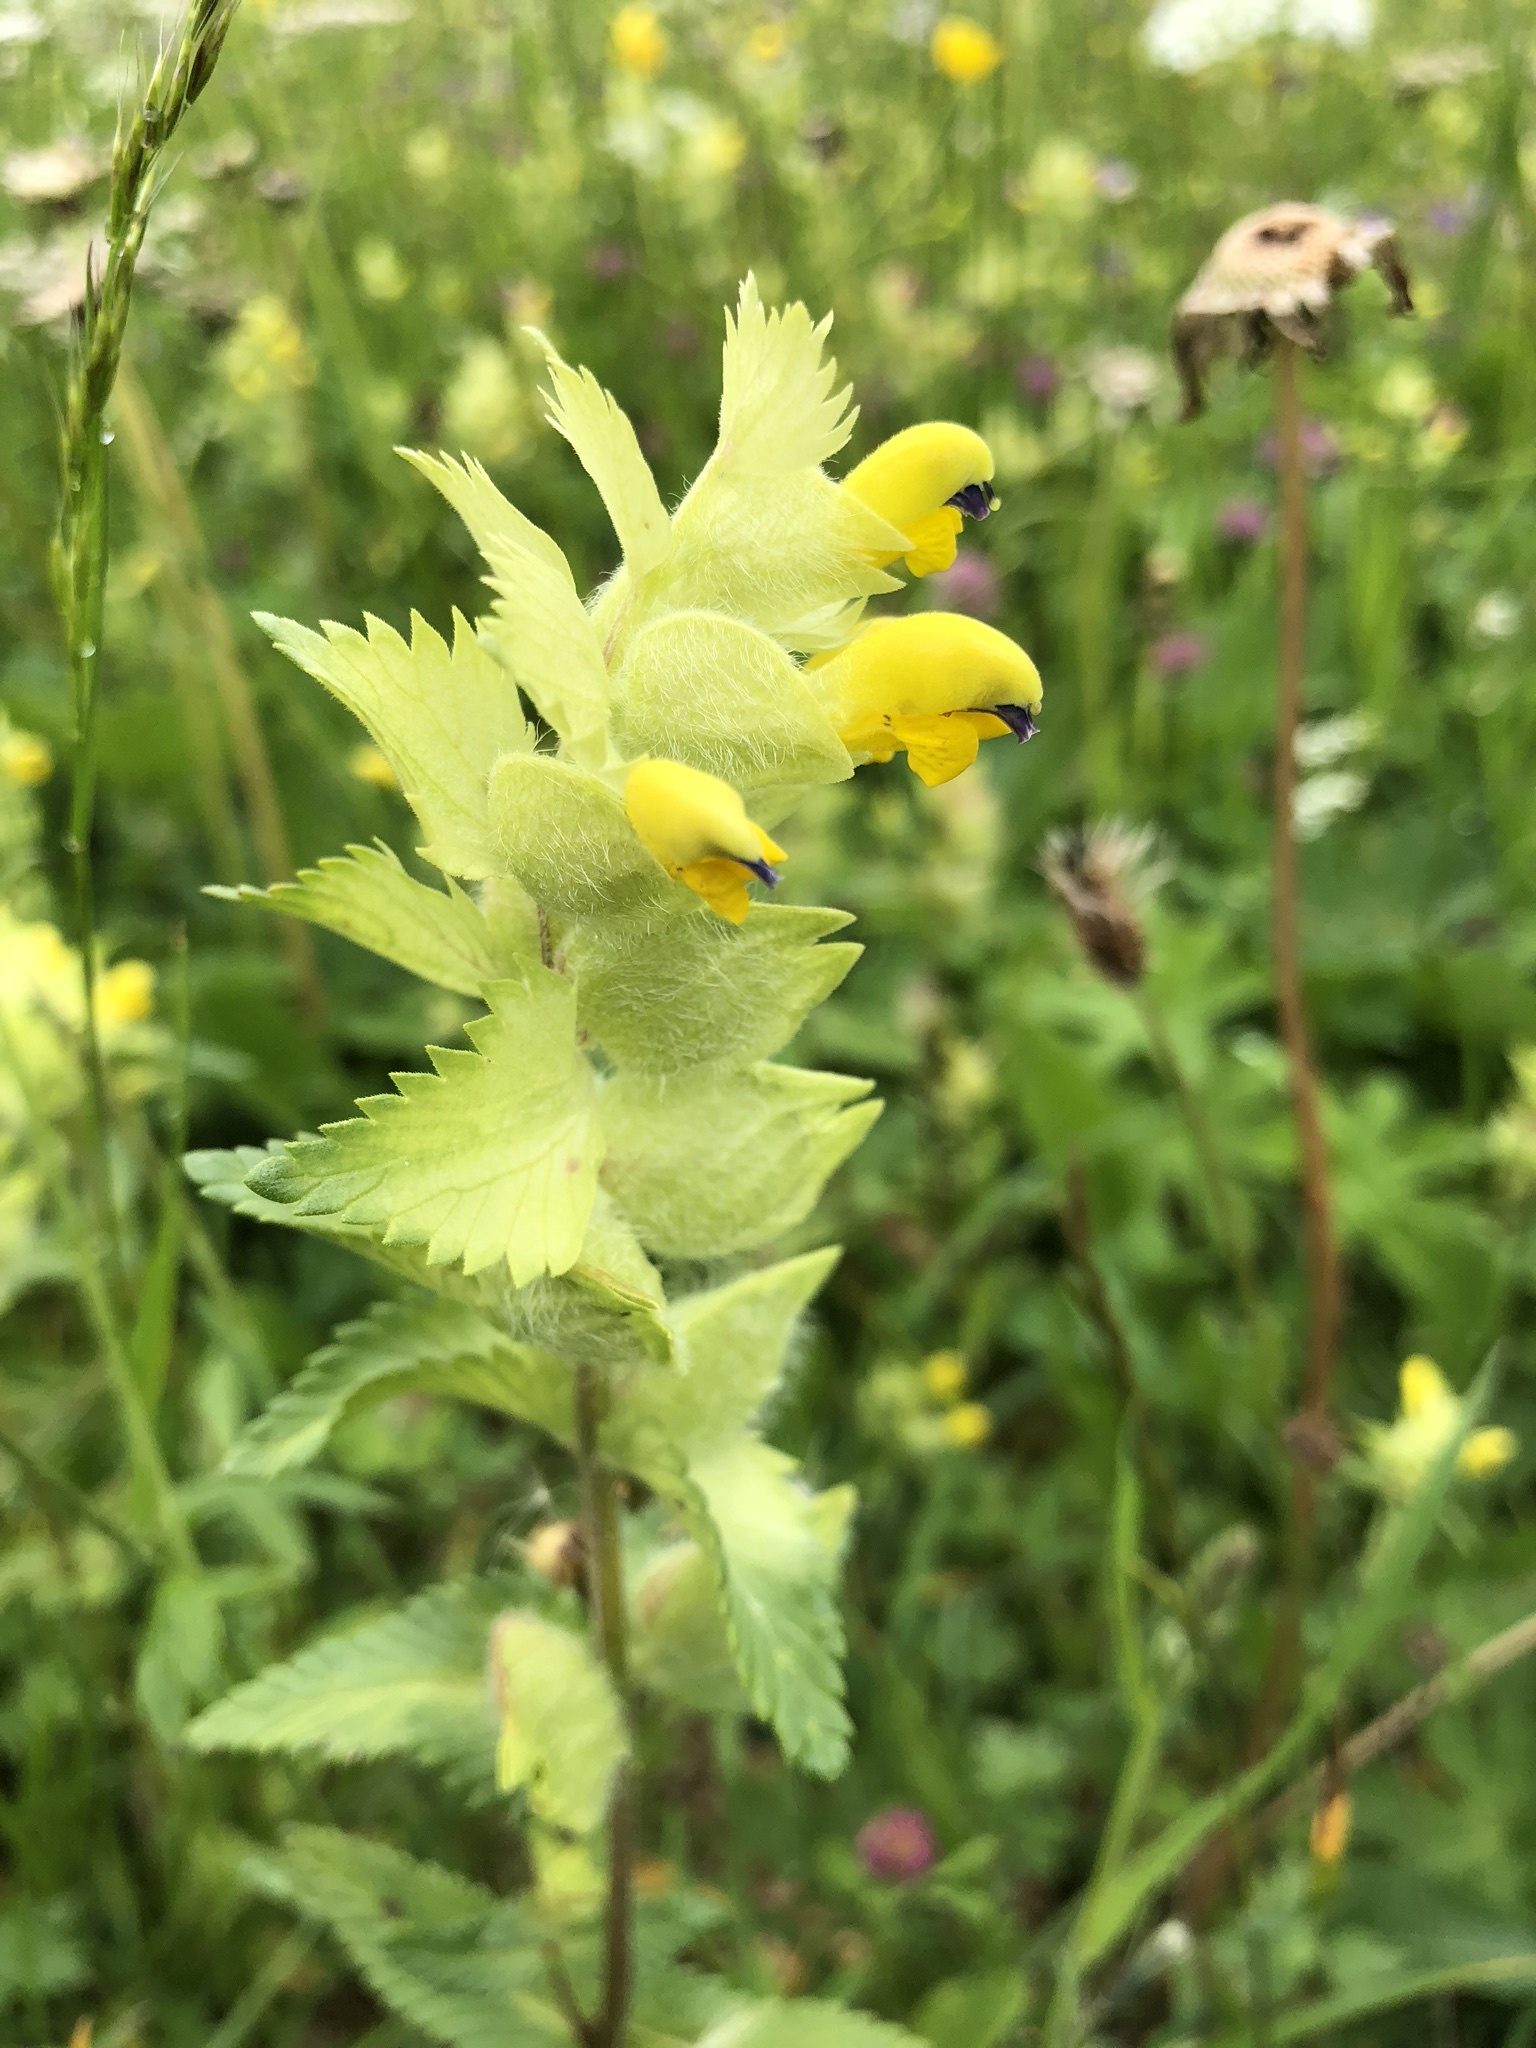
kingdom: Plantae
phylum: Tracheophyta
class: Magnoliopsida
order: Lamiales
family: Orobanchaceae
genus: Rhinanthus
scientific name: Rhinanthus alectorolophus
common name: Greater yellow-rattle
